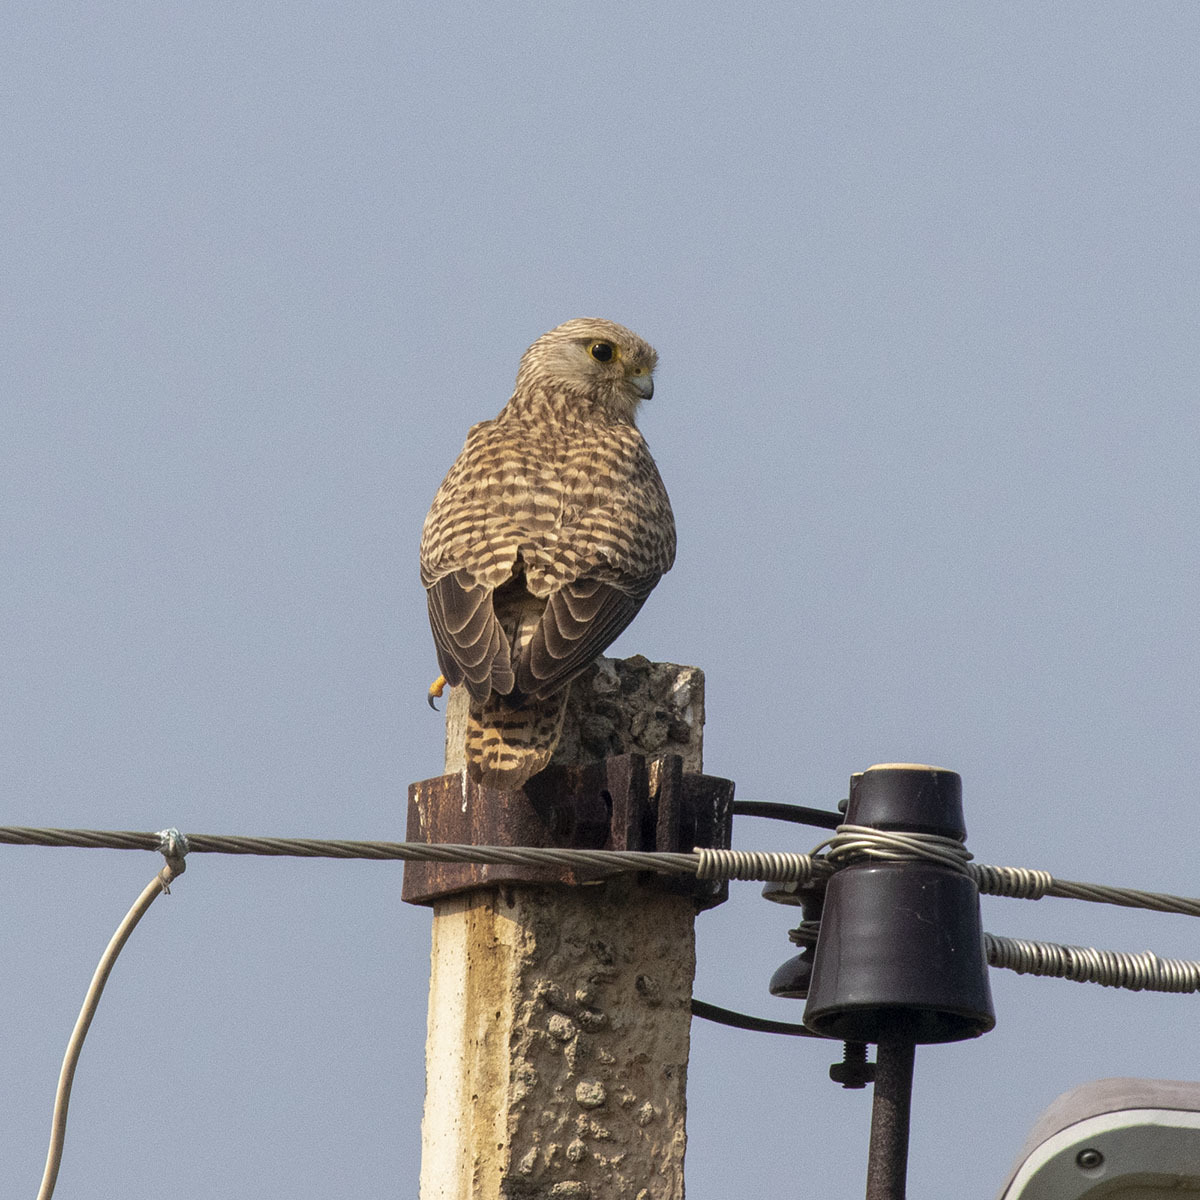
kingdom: Animalia
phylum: Chordata
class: Aves
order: Falconiformes
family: Falconidae
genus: Falco
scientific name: Falco tinnunculus
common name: Common kestrel
